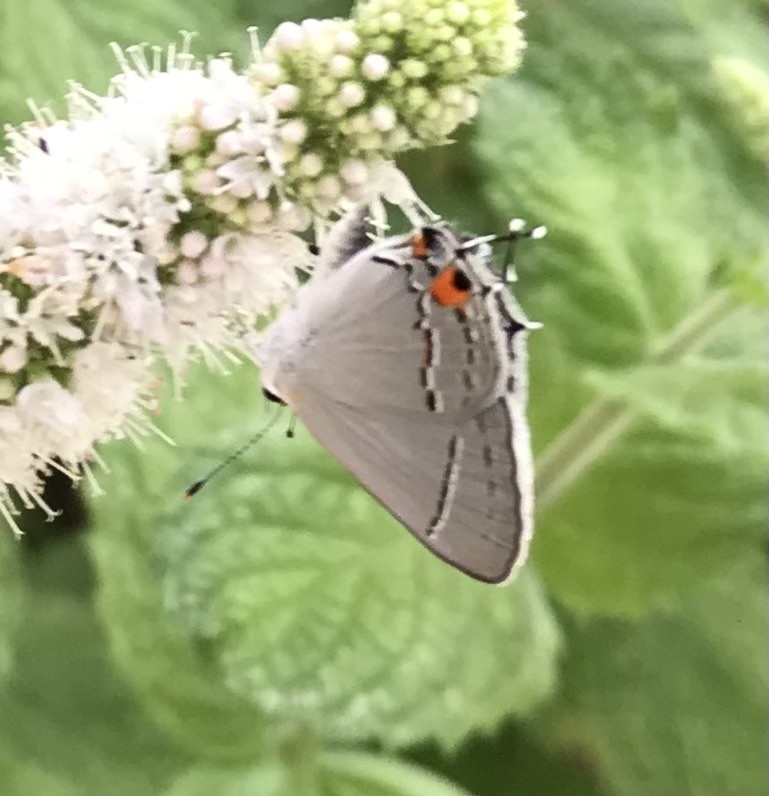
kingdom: Animalia
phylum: Arthropoda
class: Insecta
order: Lepidoptera
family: Lycaenidae
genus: Strymon
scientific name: Strymon melinus
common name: Gray hairstreak
